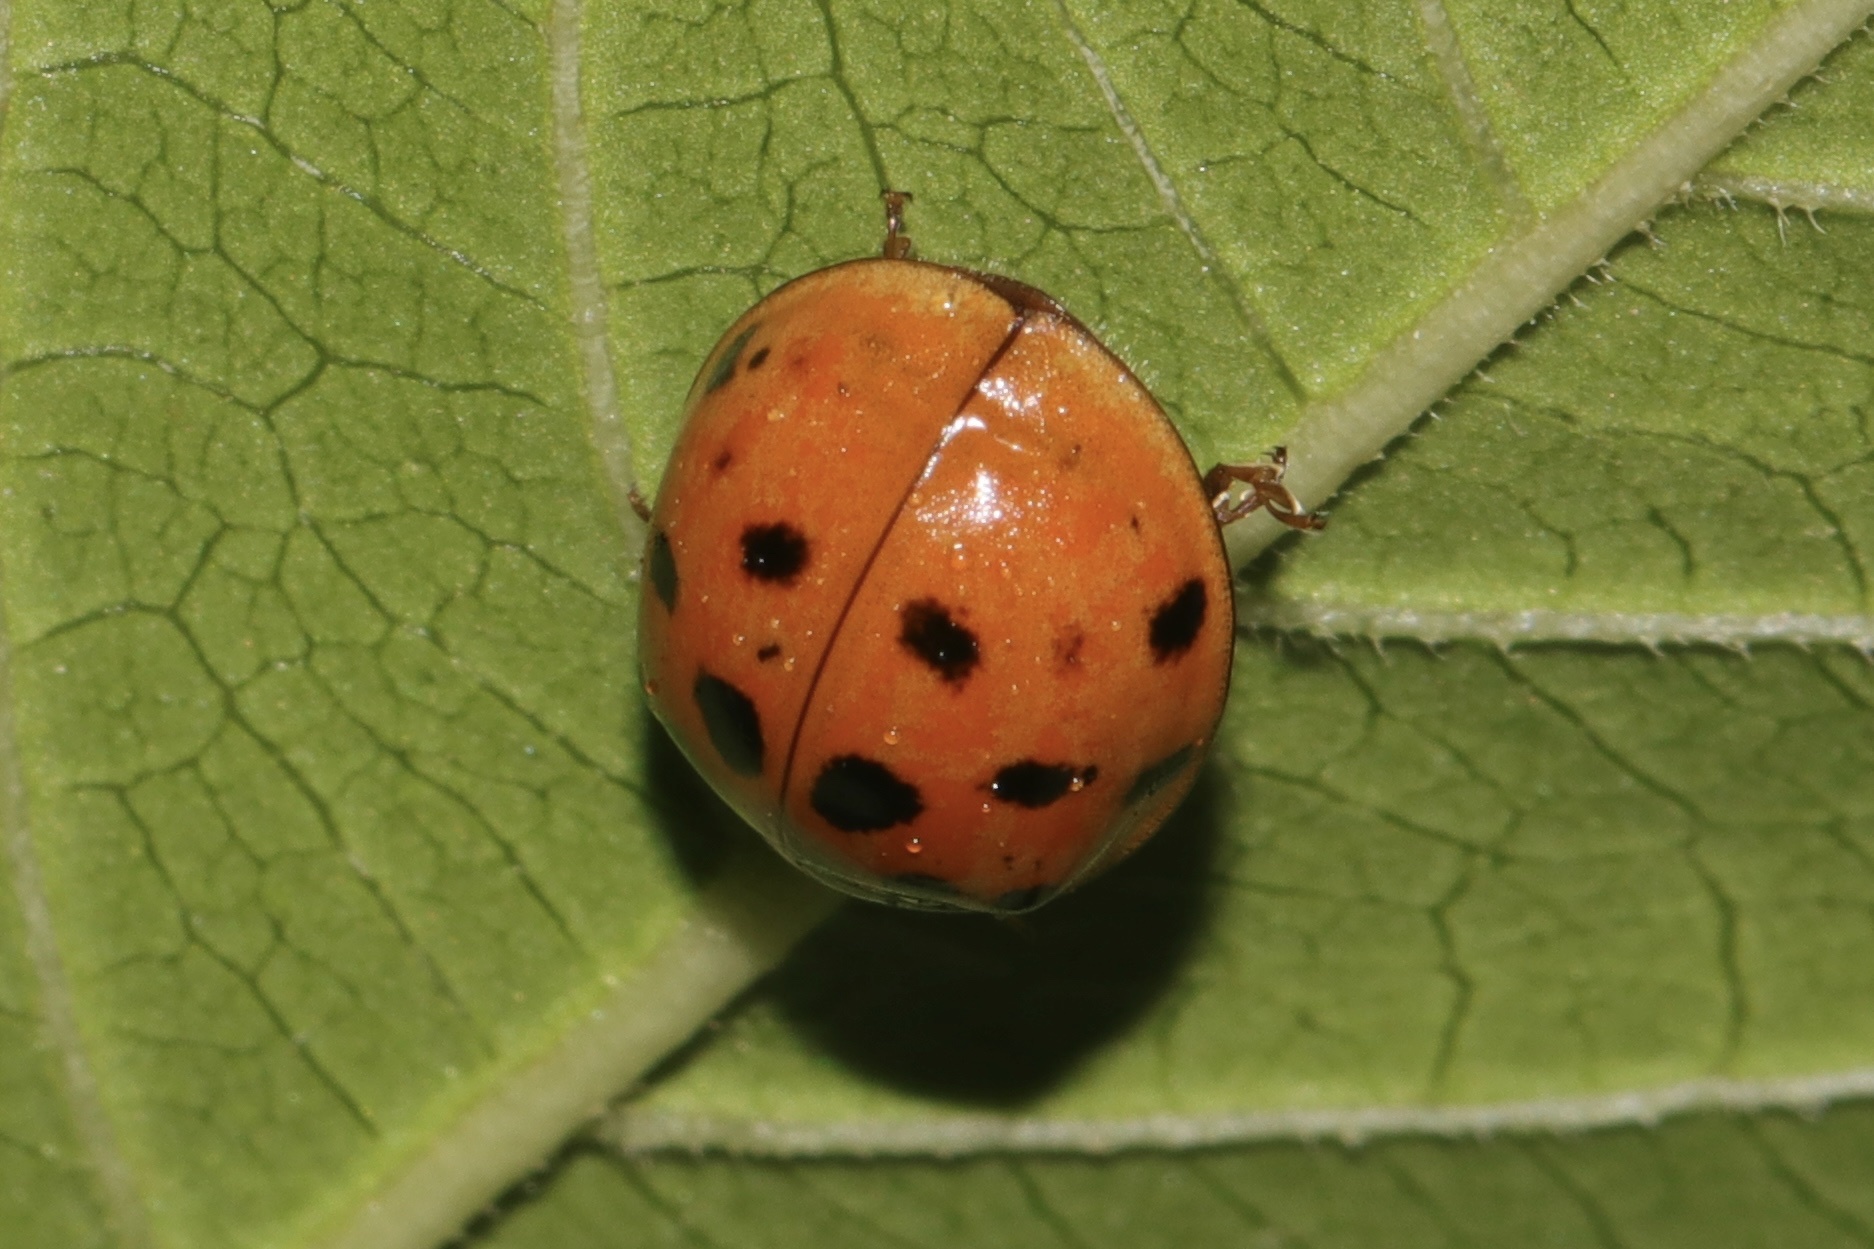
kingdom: Animalia
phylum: Arthropoda
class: Insecta
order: Coleoptera
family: Coccinellidae
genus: Harmonia
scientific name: Harmonia axyridis
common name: Harlequin ladybird
